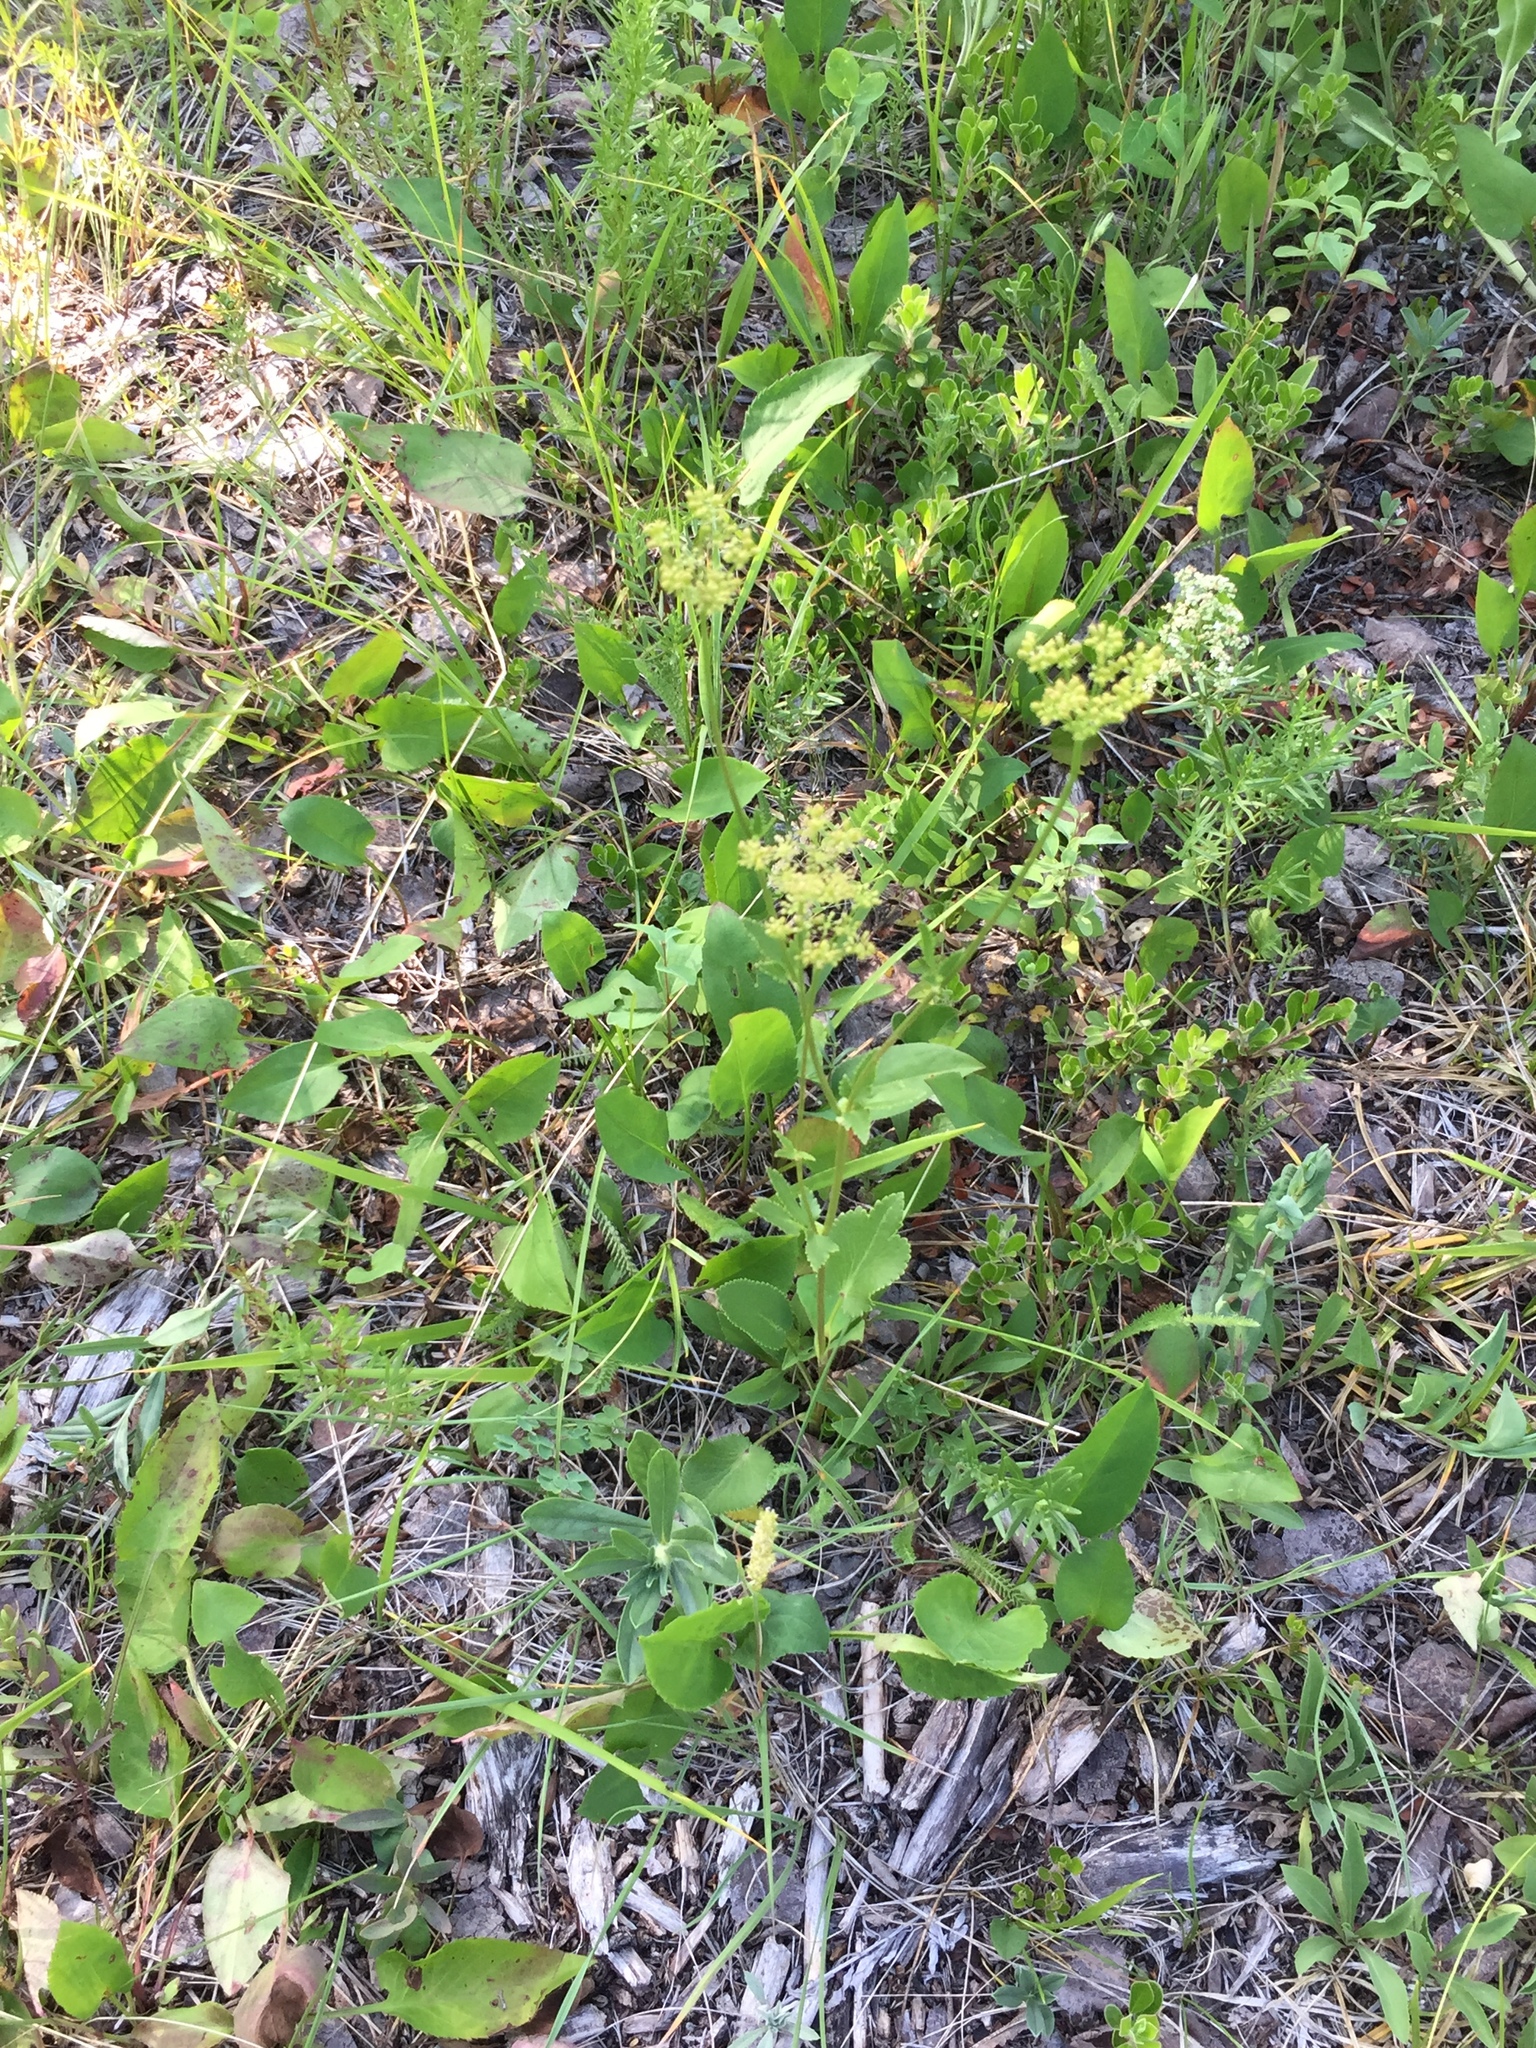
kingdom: Plantae
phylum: Tracheophyta
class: Magnoliopsida
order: Apiales
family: Apiaceae
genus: Zizia
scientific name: Zizia aptera
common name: Heart-leaved alexanders
